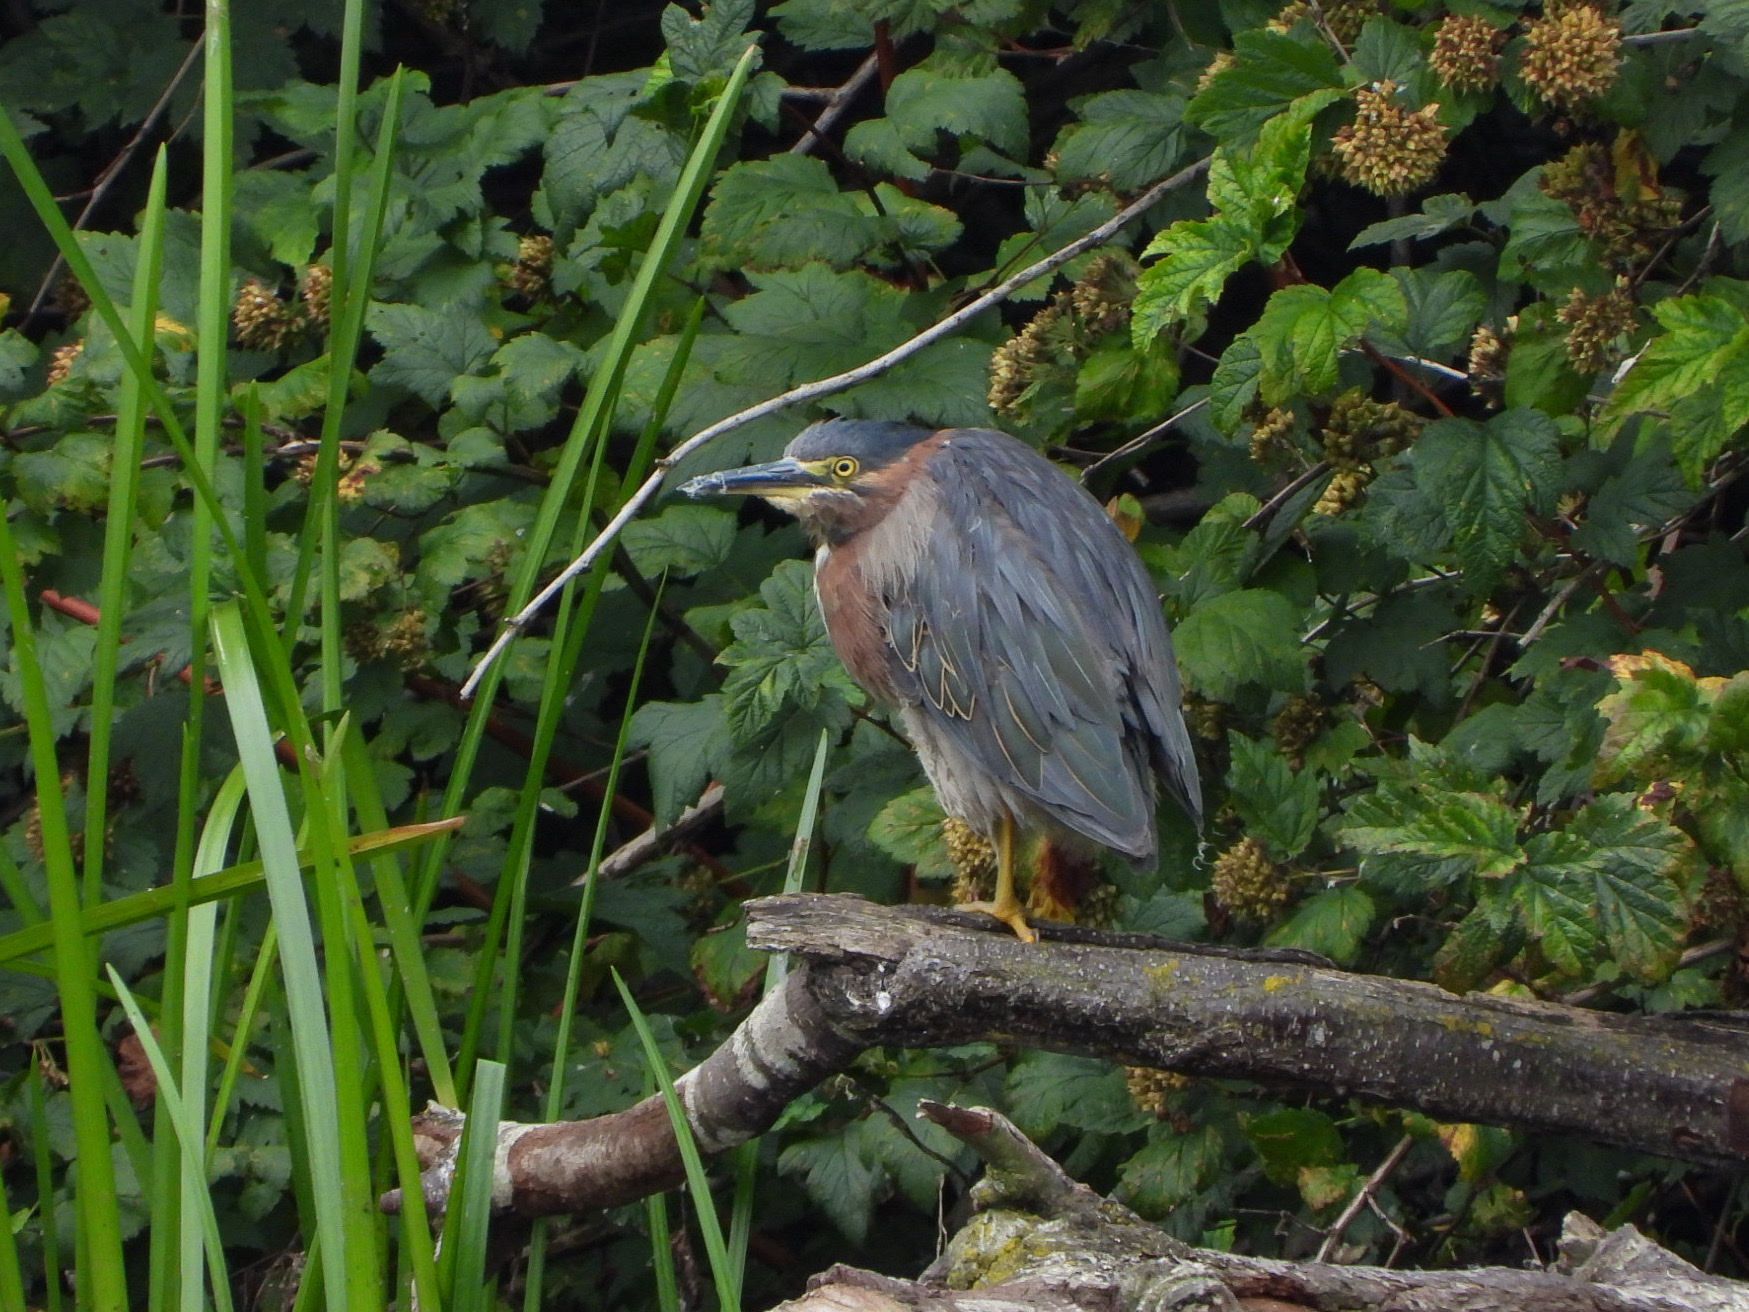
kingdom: Animalia
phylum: Chordata
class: Aves
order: Pelecaniformes
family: Ardeidae
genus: Butorides
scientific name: Butorides virescens
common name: Green heron
